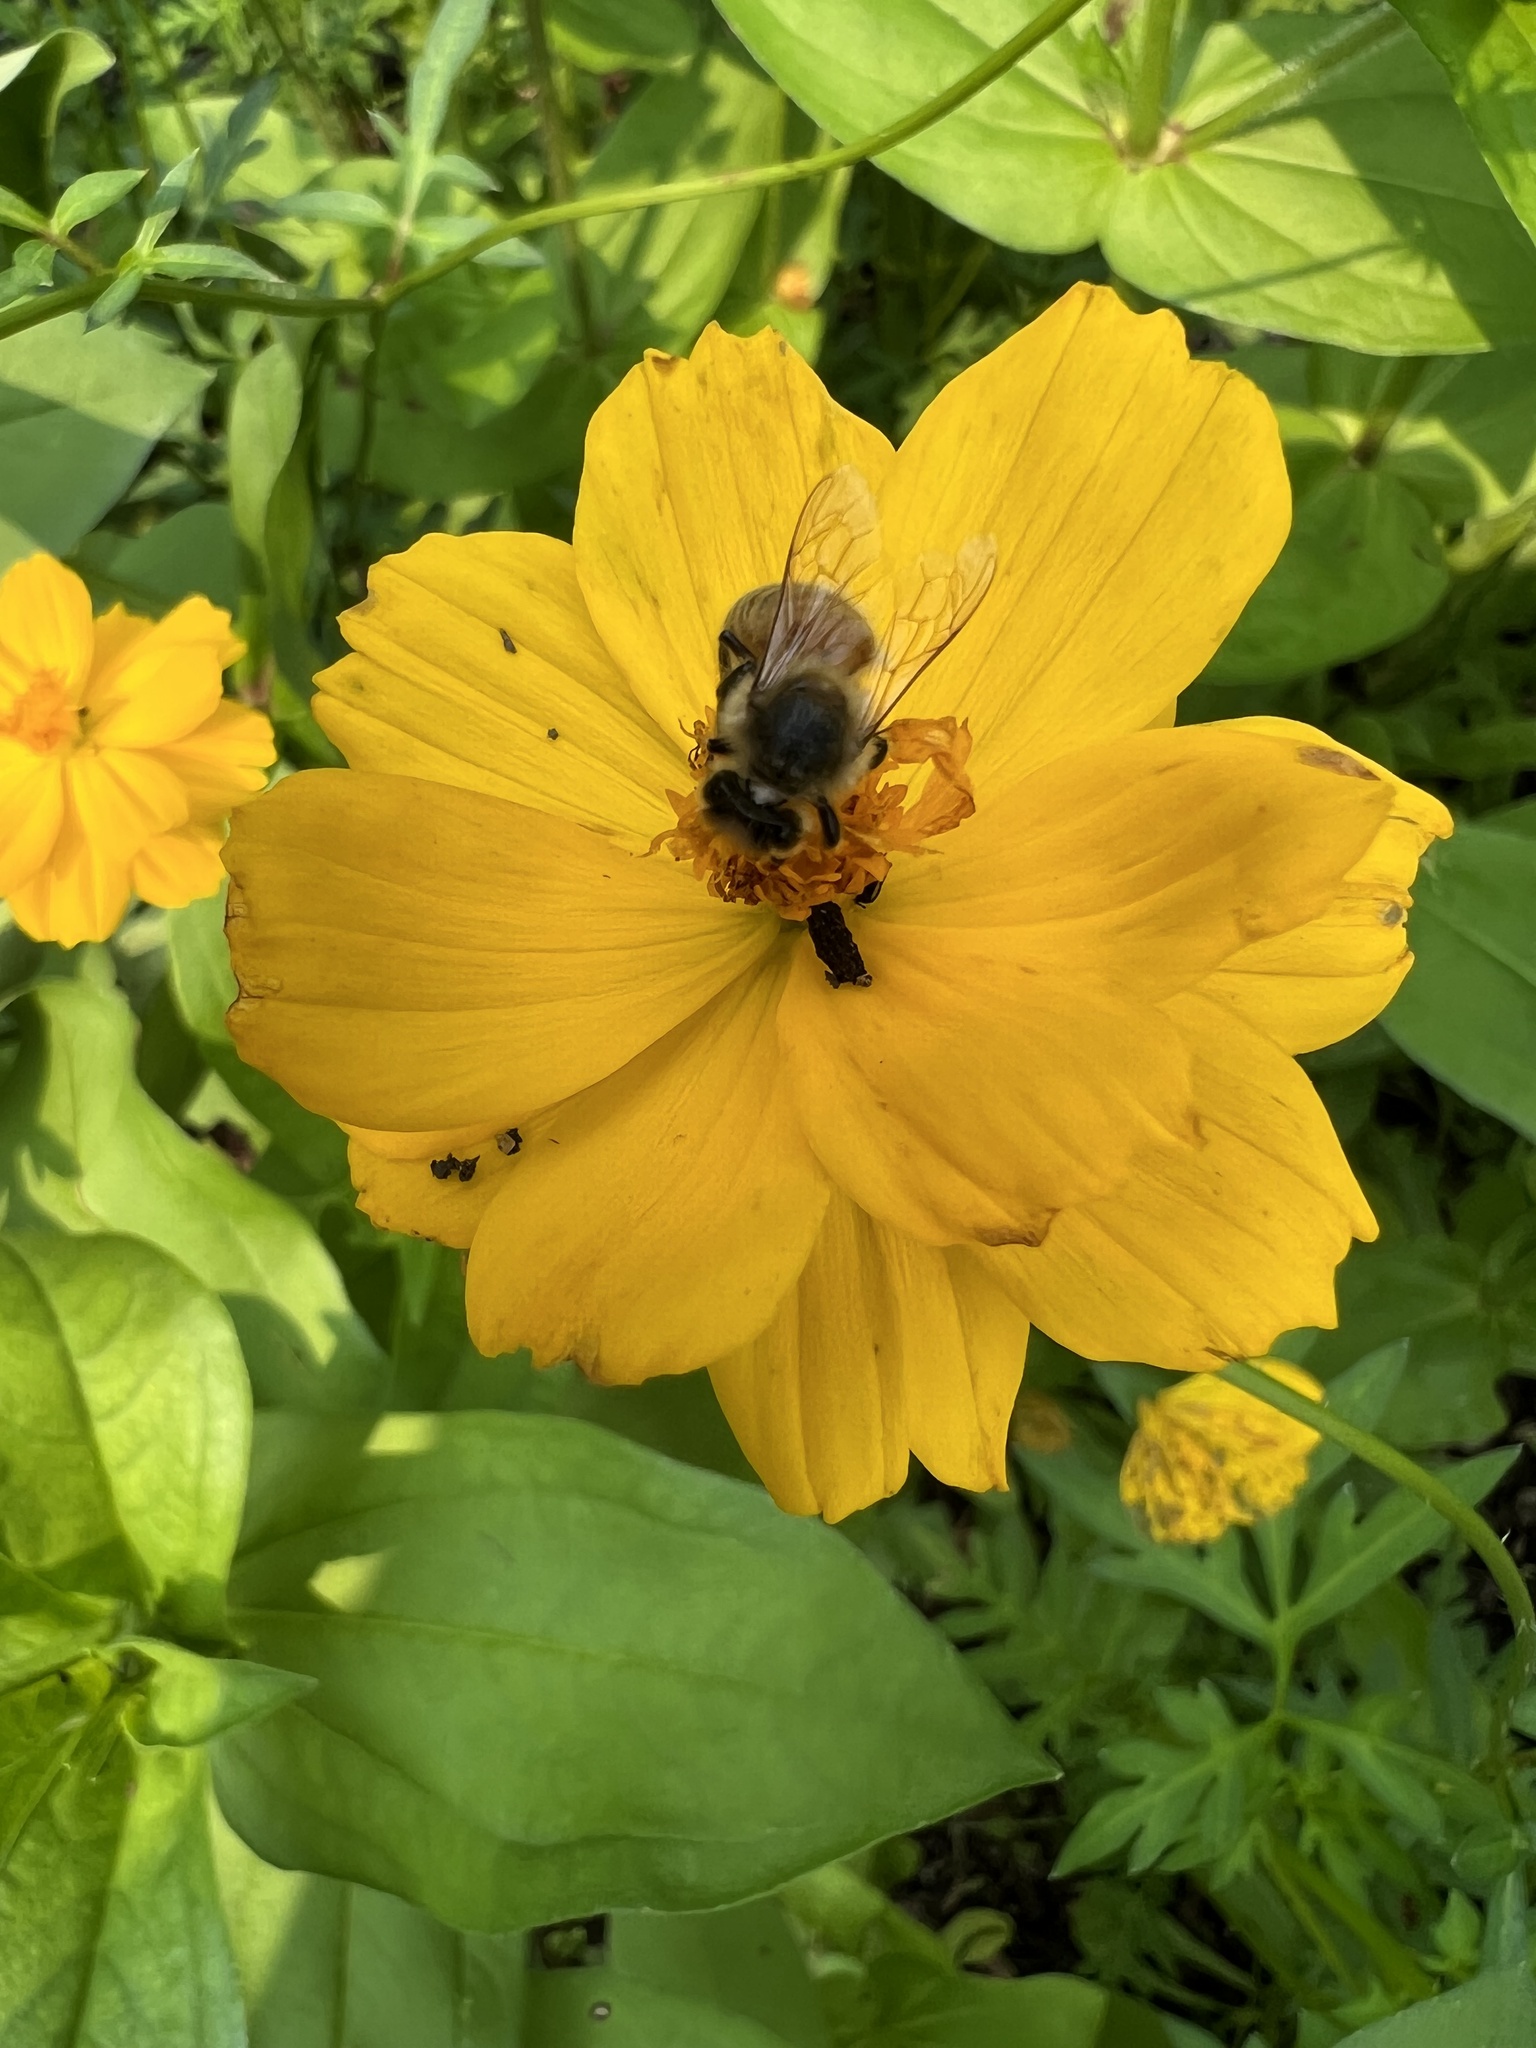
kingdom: Animalia
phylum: Arthropoda
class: Insecta
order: Hymenoptera
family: Apidae
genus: Apis
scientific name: Apis mellifera
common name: Honey bee
